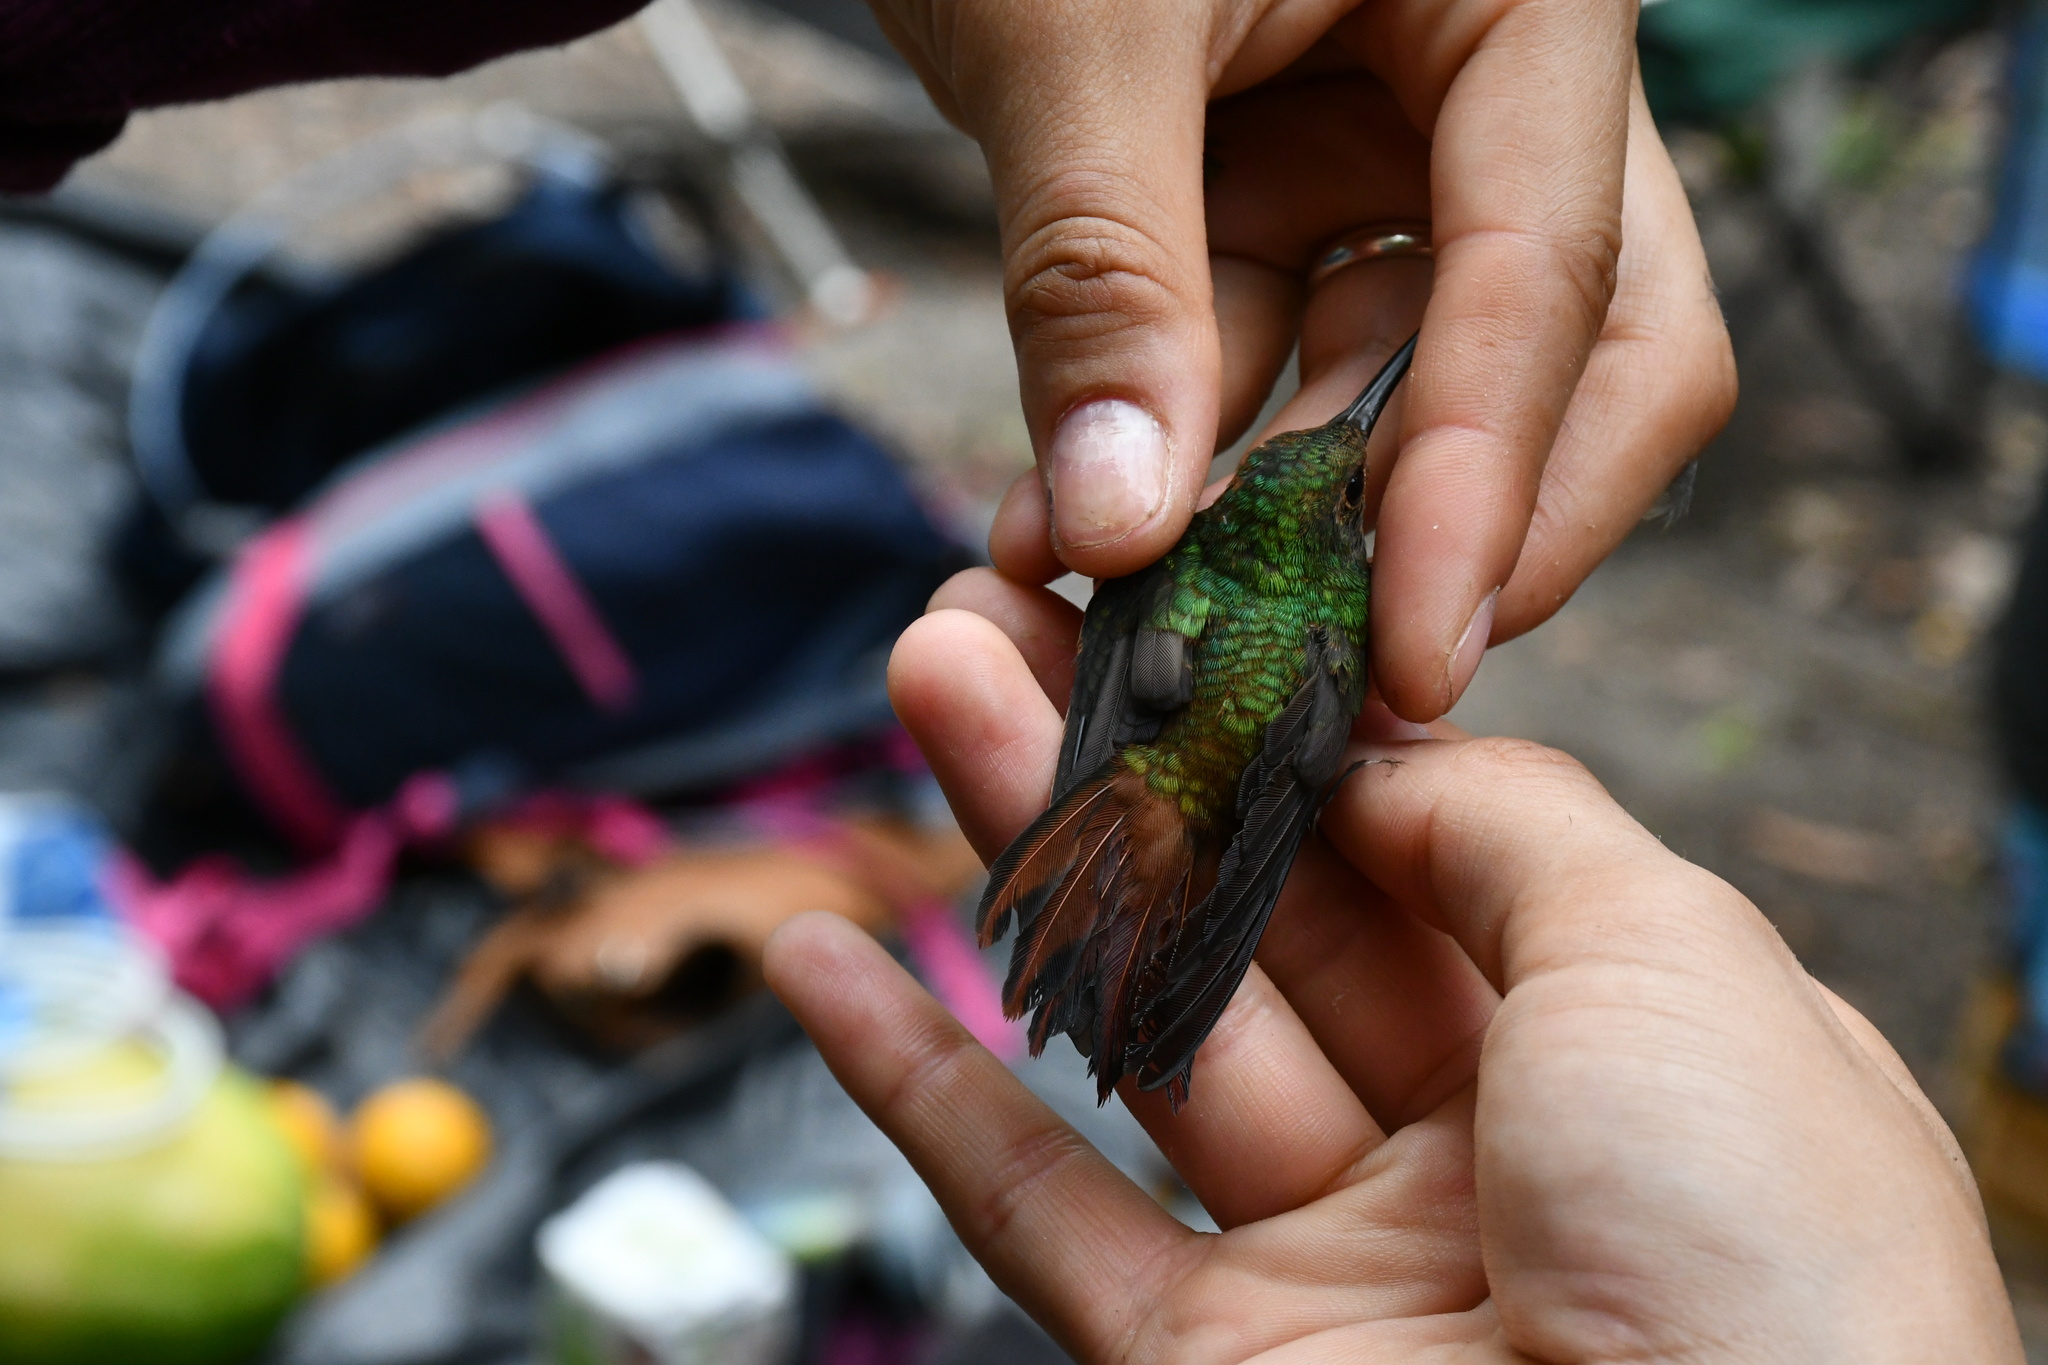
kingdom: Animalia
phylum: Chordata
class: Aves
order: Apodiformes
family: Trochilidae
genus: Amazilia
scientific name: Amazilia tzacatl
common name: Rufous-tailed hummingbird
